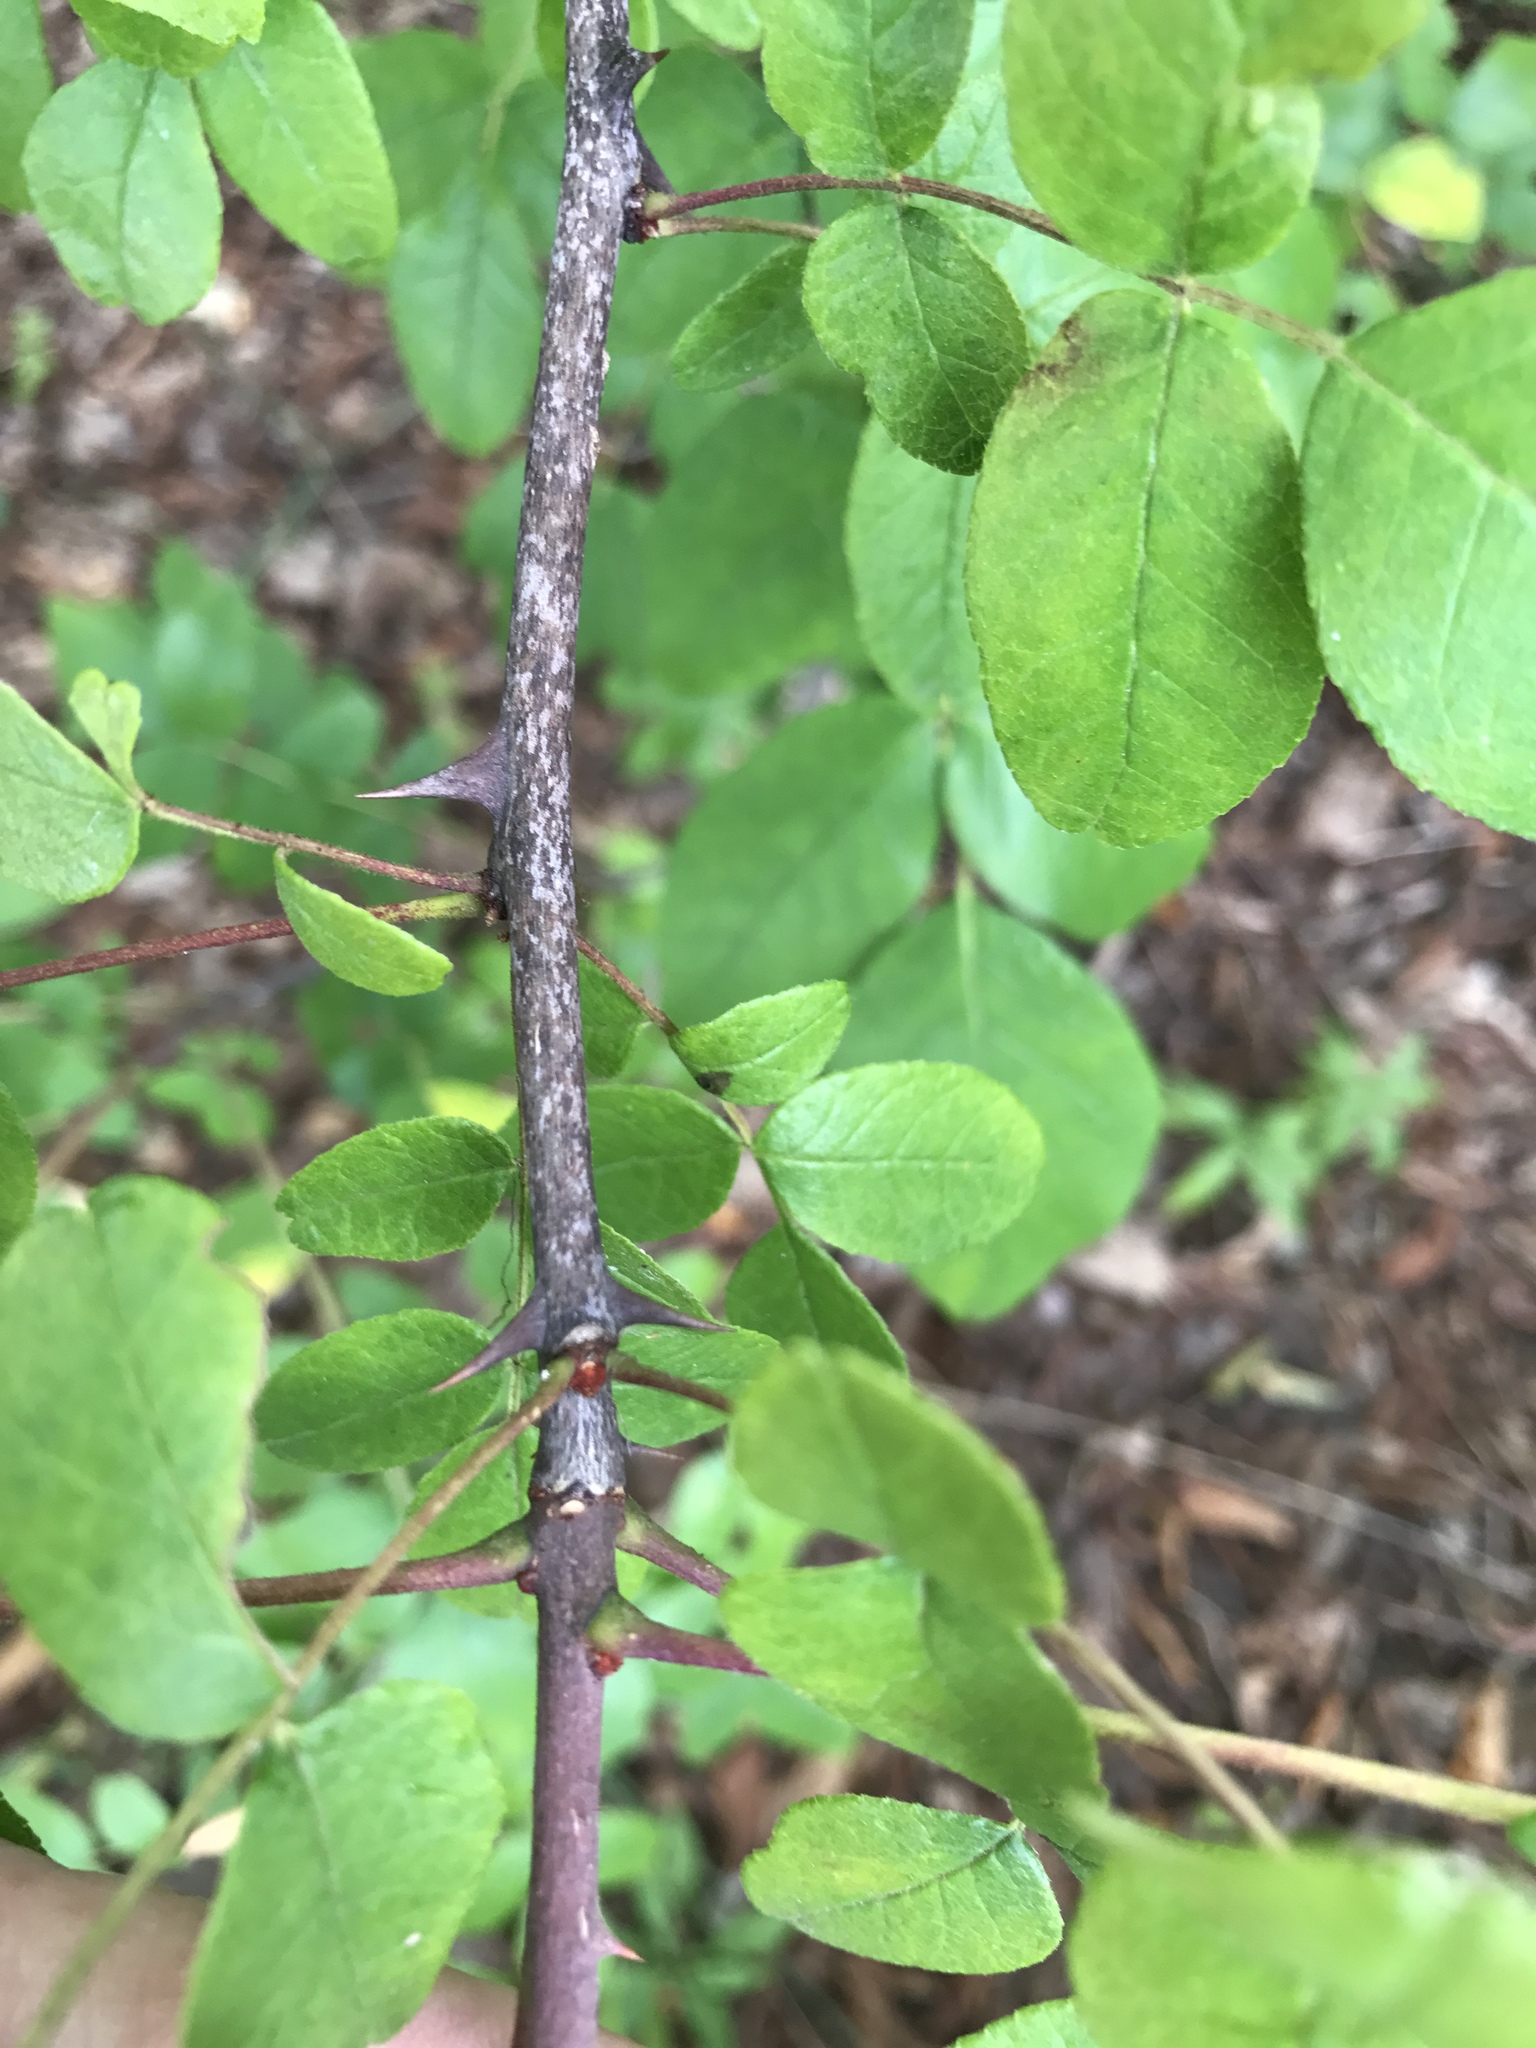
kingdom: Plantae
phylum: Tracheophyta
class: Magnoliopsida
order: Sapindales
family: Rutaceae
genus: Zanthoxylum
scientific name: Zanthoxylum americanum
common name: Northern prickly-ash
